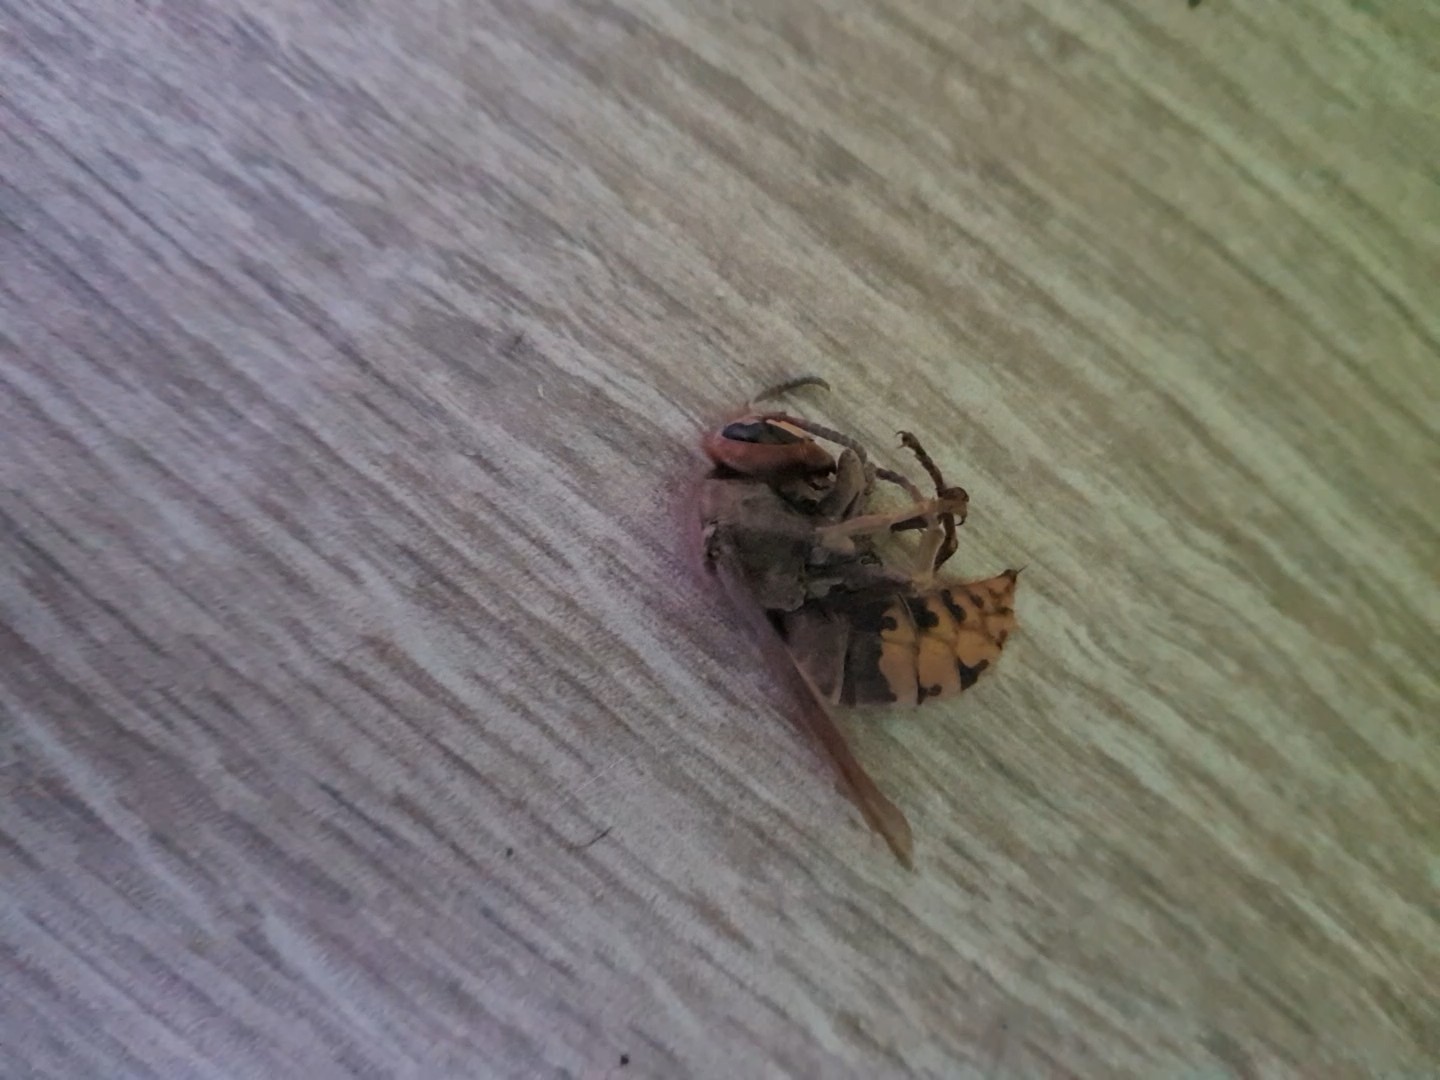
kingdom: Animalia
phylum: Arthropoda
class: Insecta
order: Hymenoptera
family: Vespidae
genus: Vespa
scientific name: Vespa crabro
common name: Hornet
